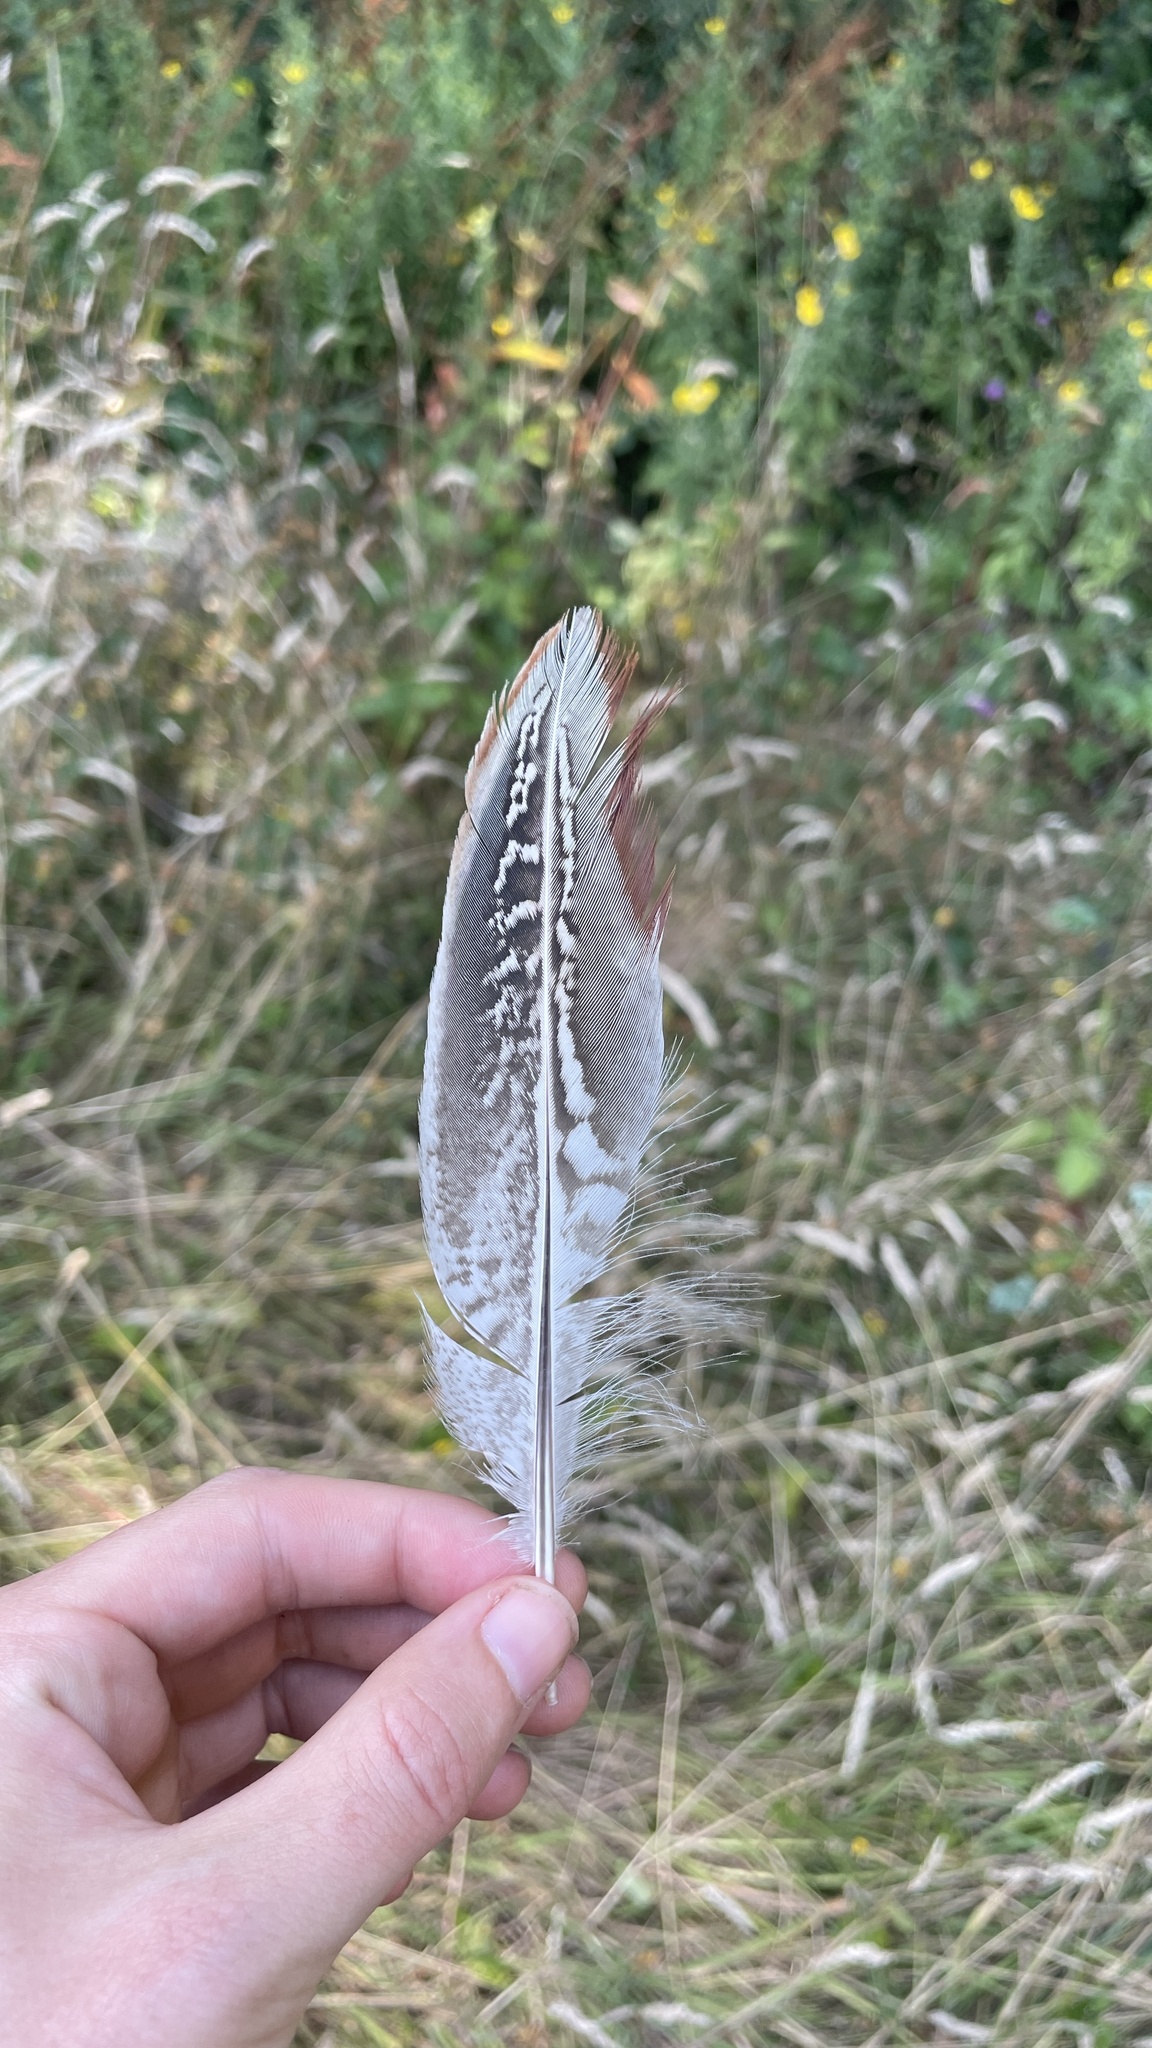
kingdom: Animalia
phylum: Chordata
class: Aves
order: Galliformes
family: Phasianidae
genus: Phasianus
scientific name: Phasianus colchicus
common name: Common pheasant
